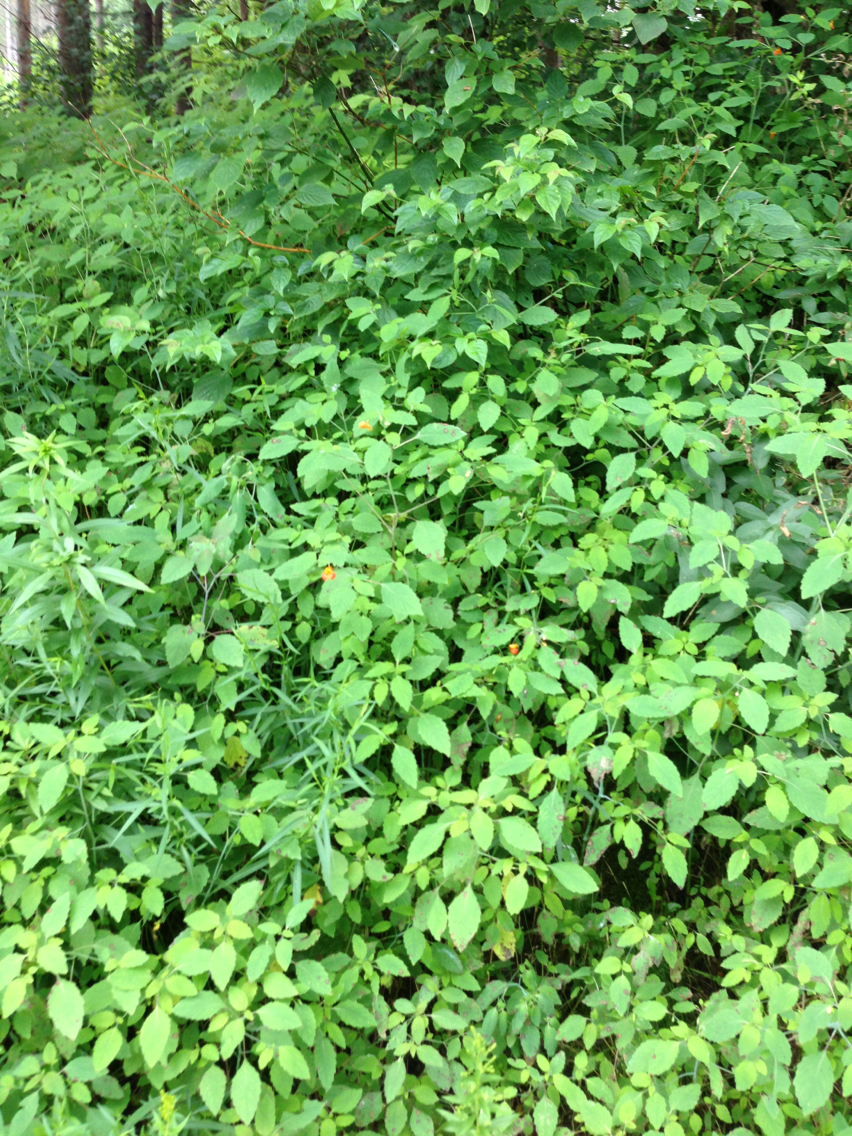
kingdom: Plantae
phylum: Tracheophyta
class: Magnoliopsida
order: Ericales
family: Balsaminaceae
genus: Impatiens
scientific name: Impatiens capensis
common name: Orange balsam
